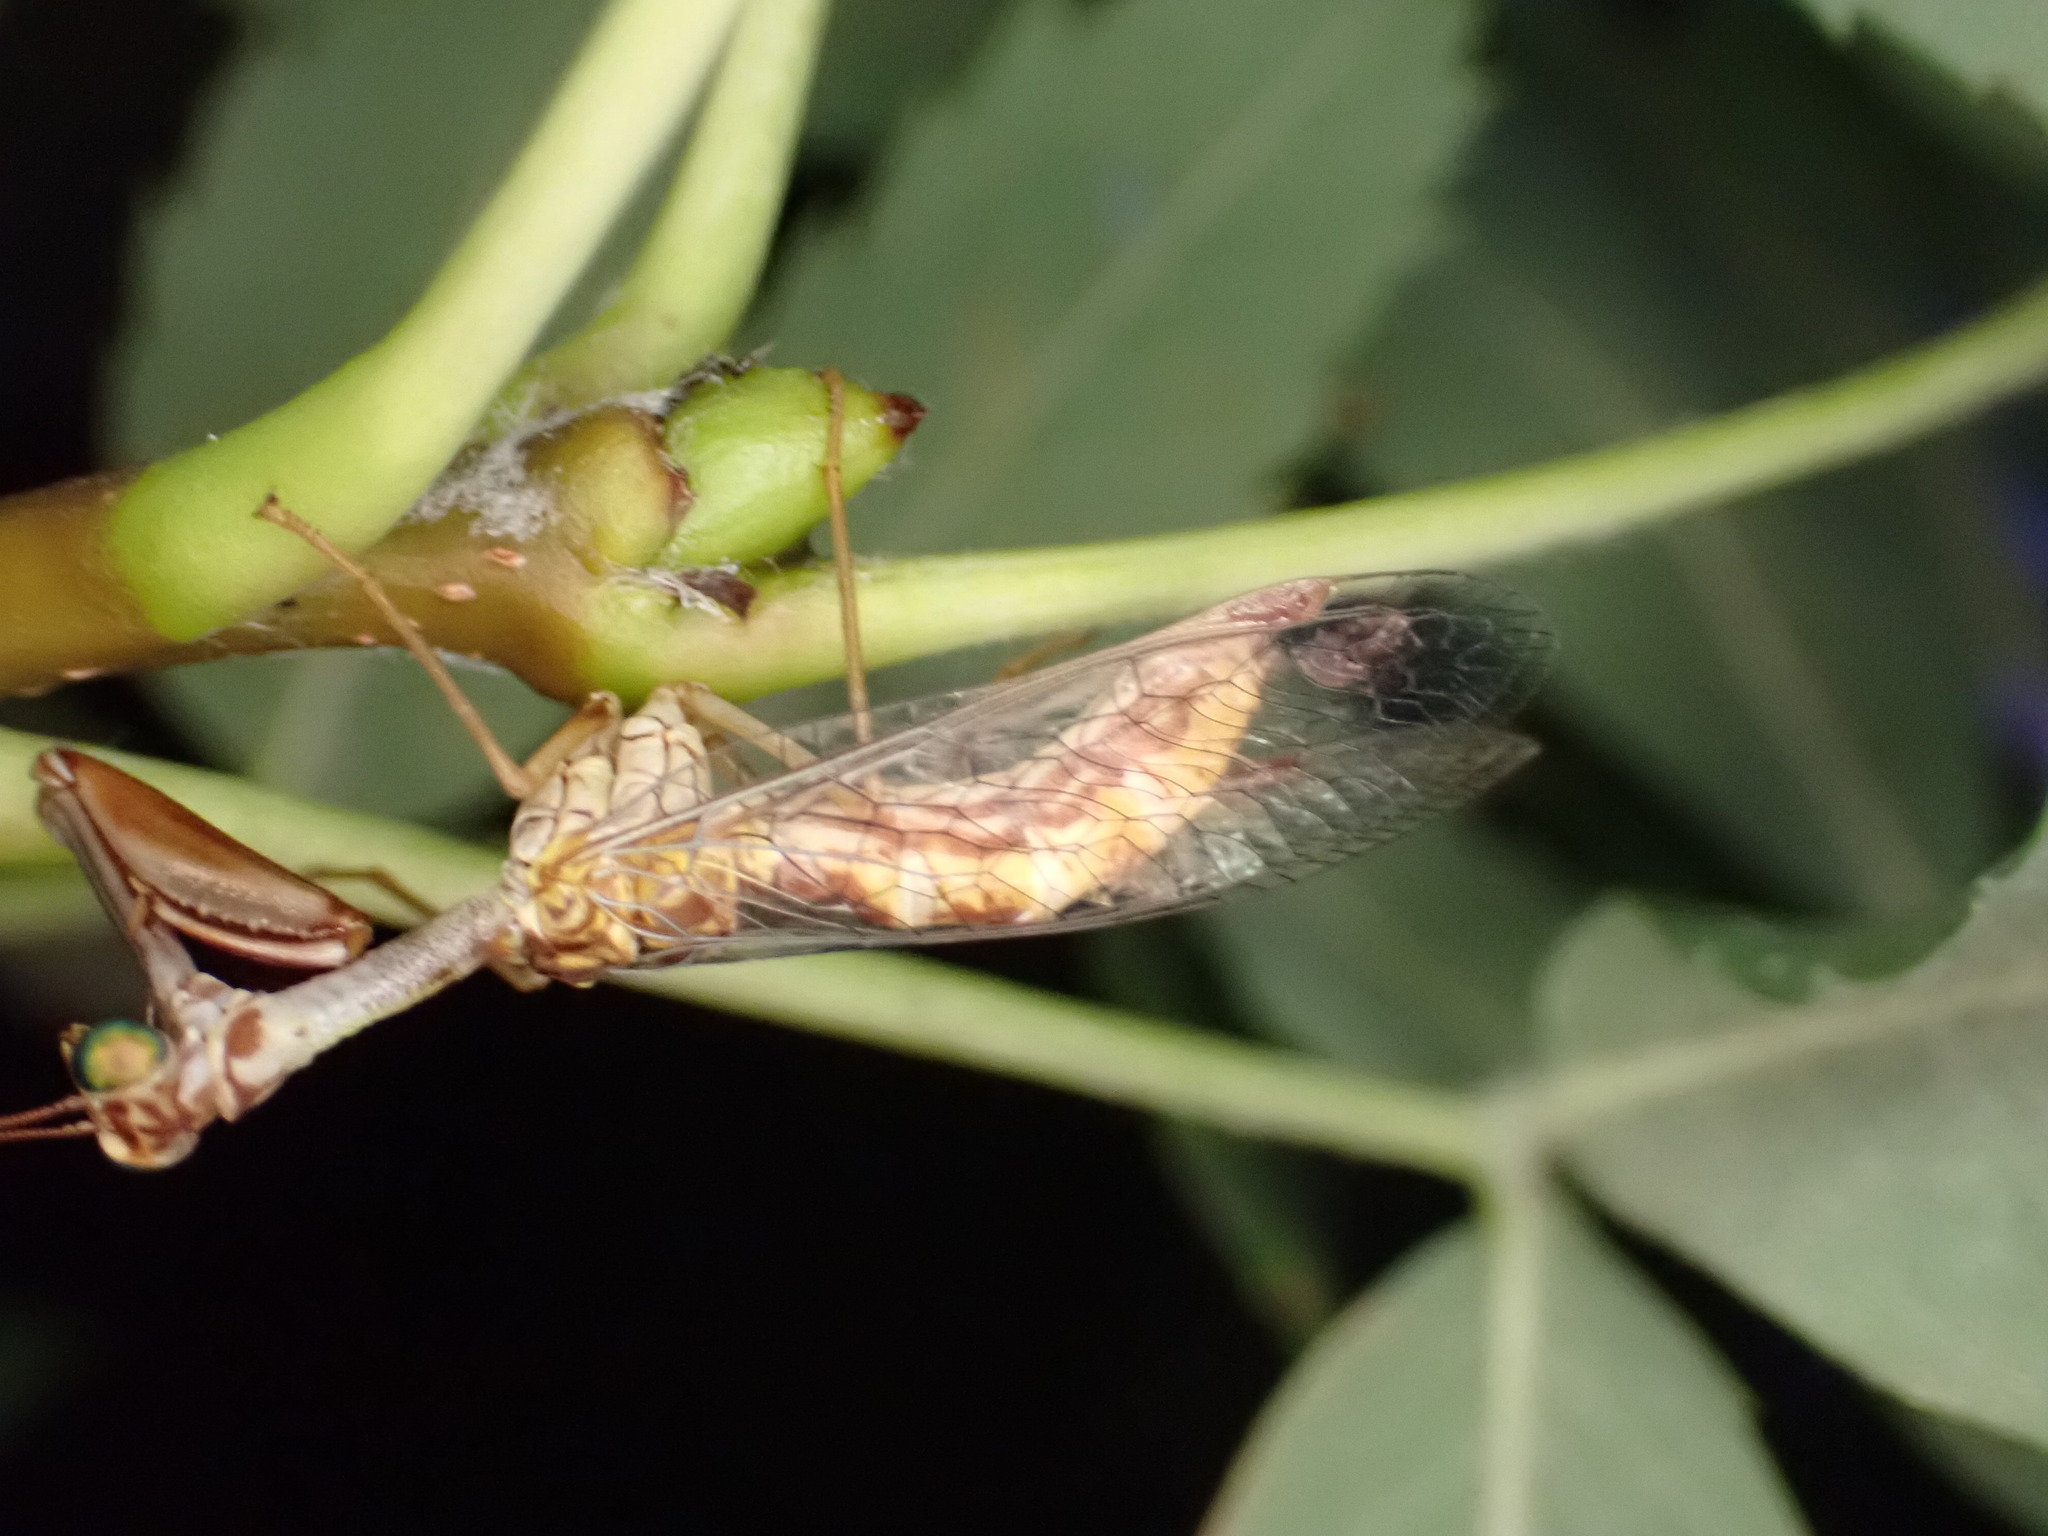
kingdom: Animalia
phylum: Arthropoda
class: Insecta
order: Neuroptera
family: Mantispidae
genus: Mantispa
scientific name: Mantispa styriaca
